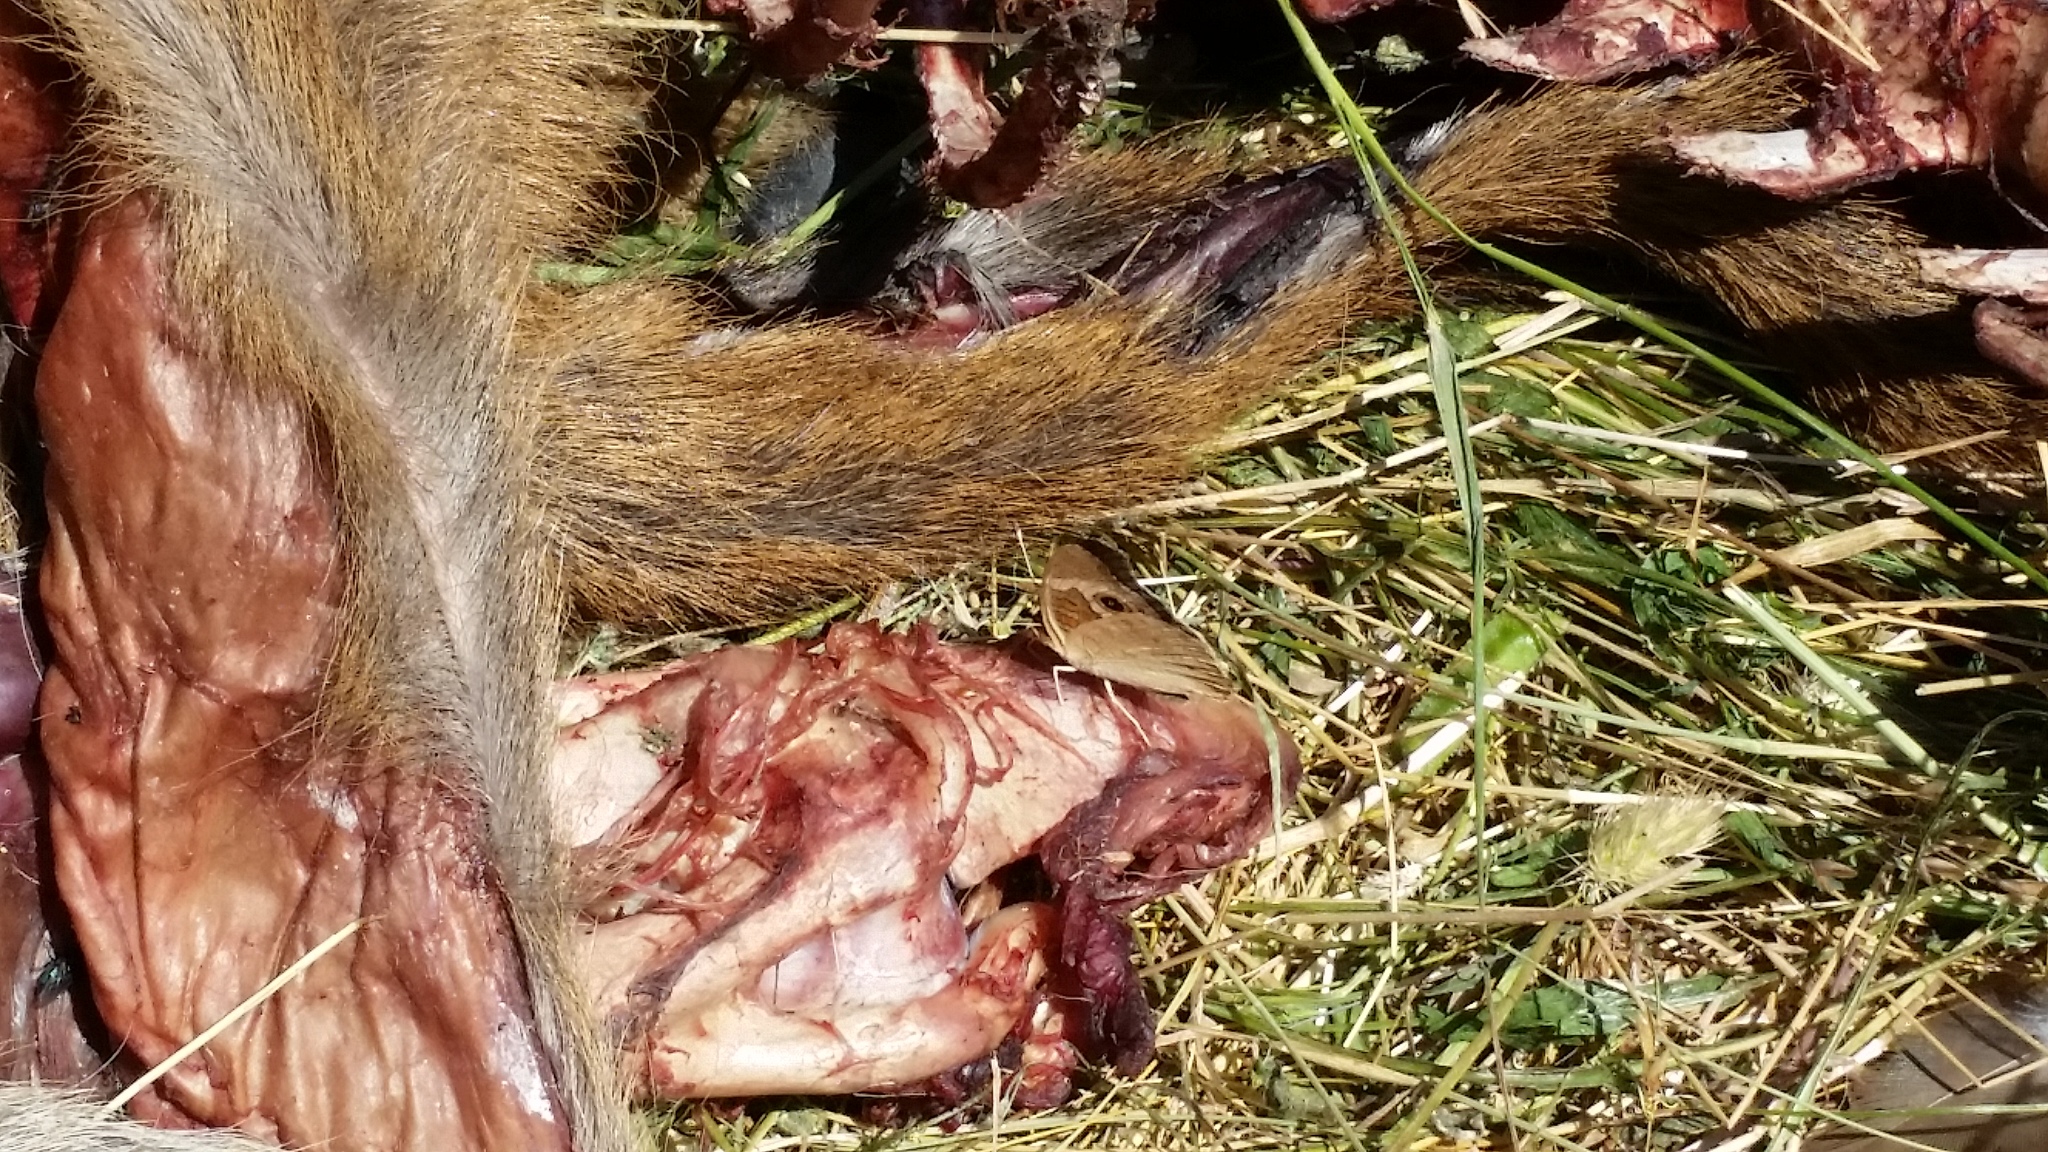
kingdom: Animalia
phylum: Arthropoda
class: Insecta
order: Lepidoptera
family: Nymphalidae
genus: Junonia
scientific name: Junonia grisea
